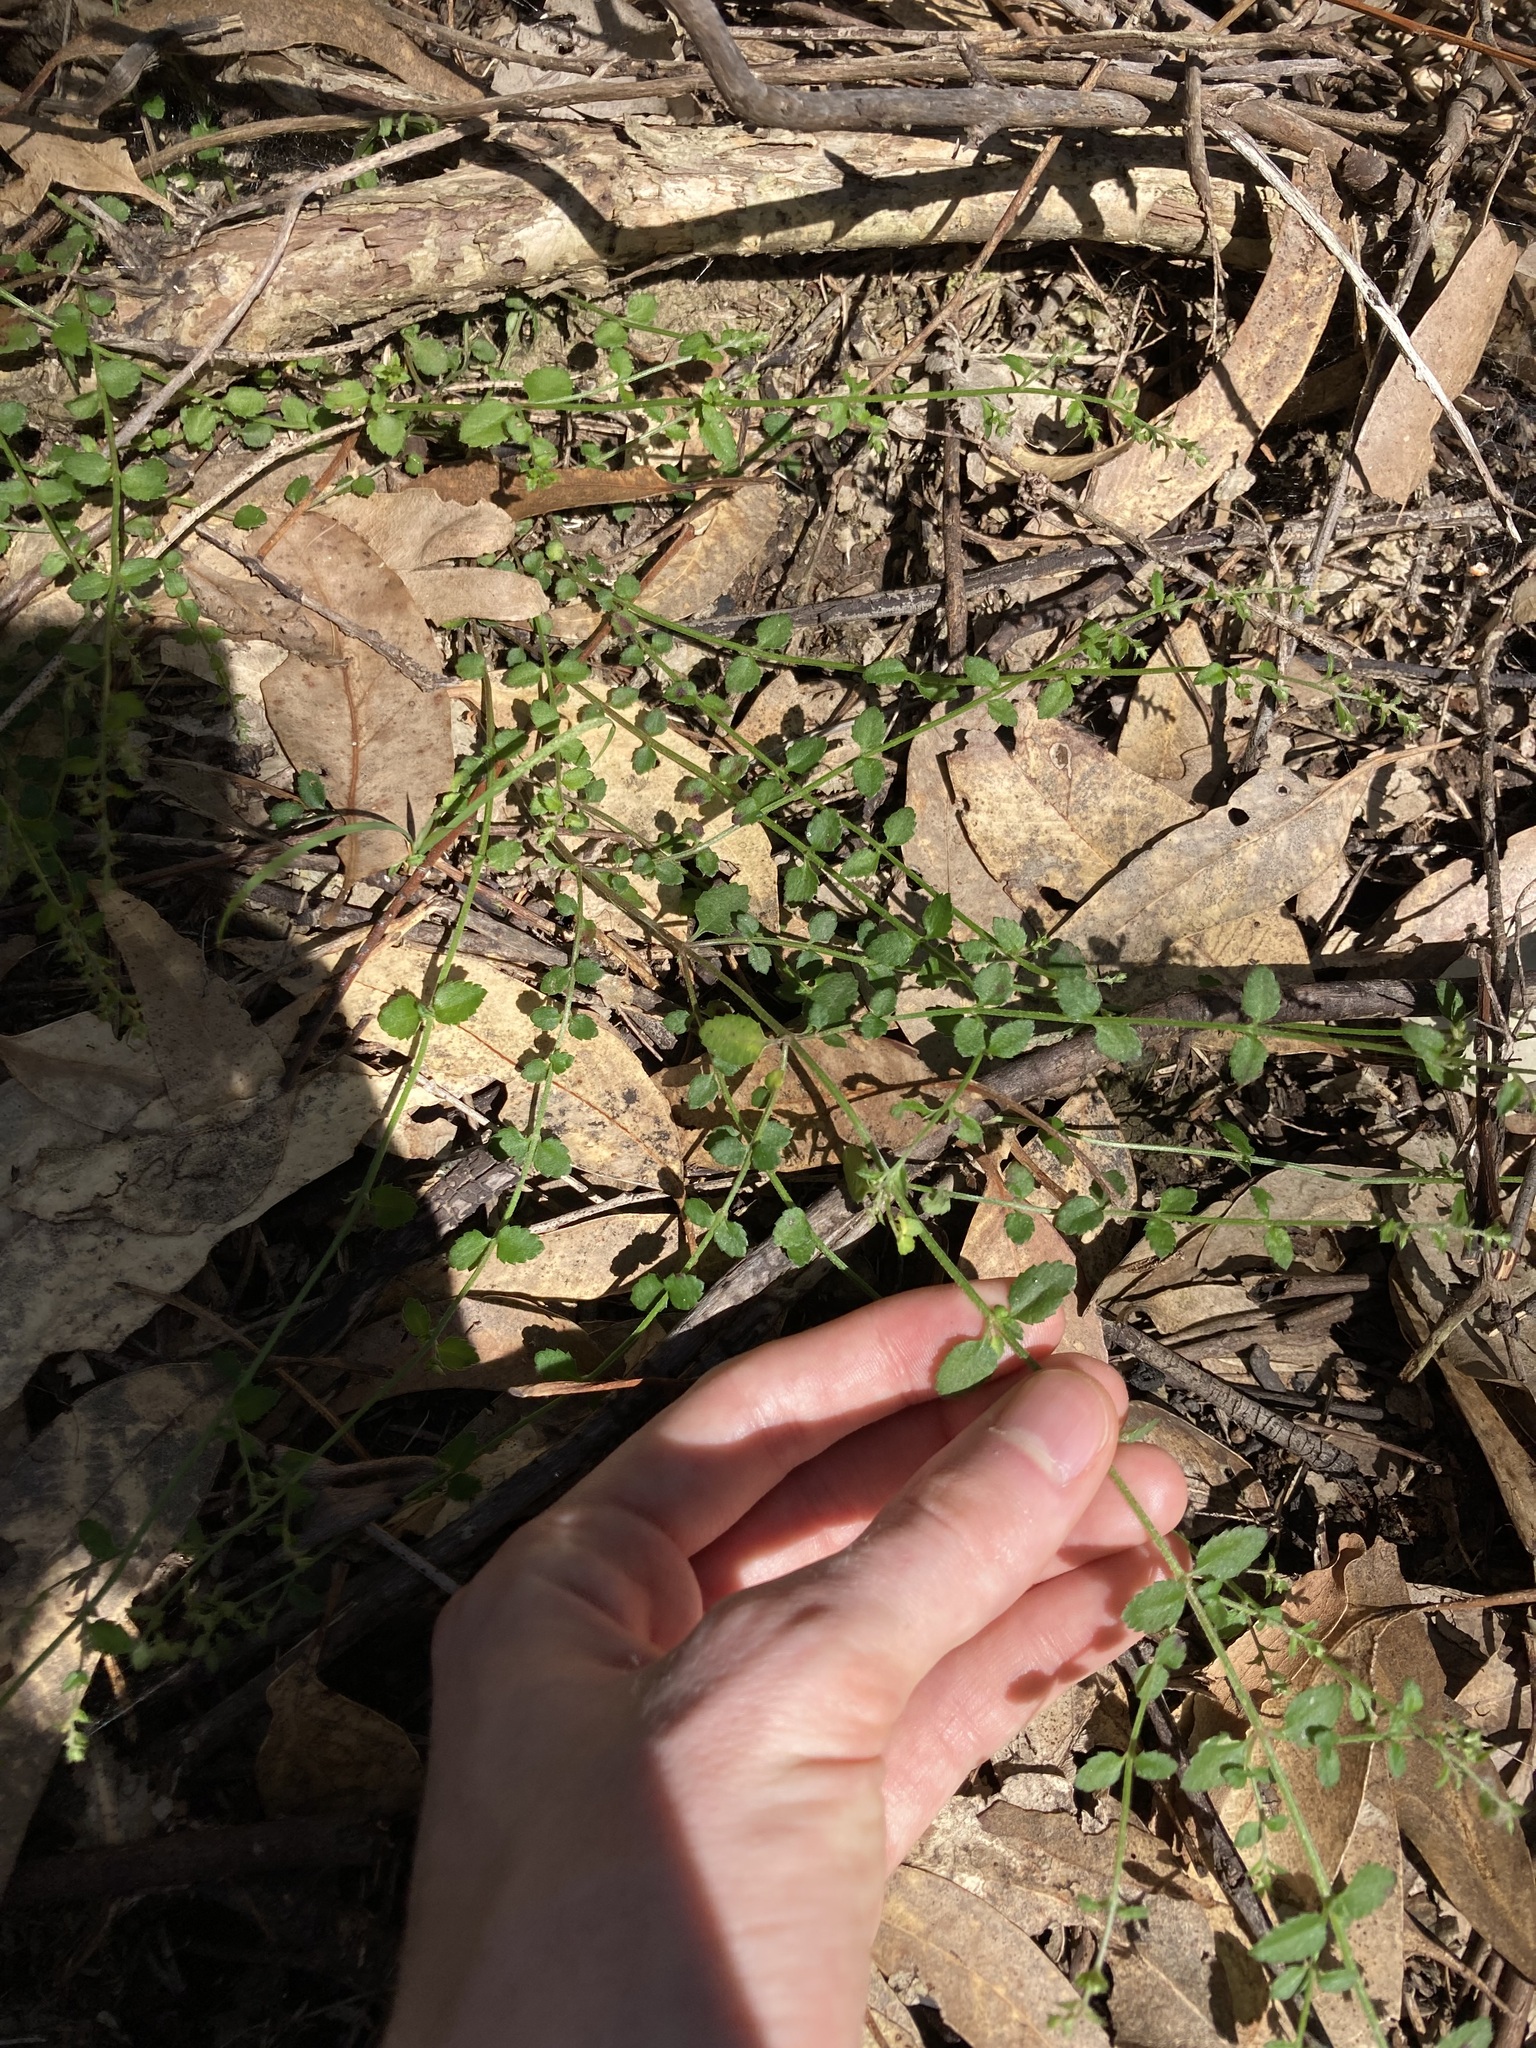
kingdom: Plantae
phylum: Tracheophyta
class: Magnoliopsida
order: Saxifragales
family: Haloragaceae
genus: Gonocarpus
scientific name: Gonocarpus humilis
